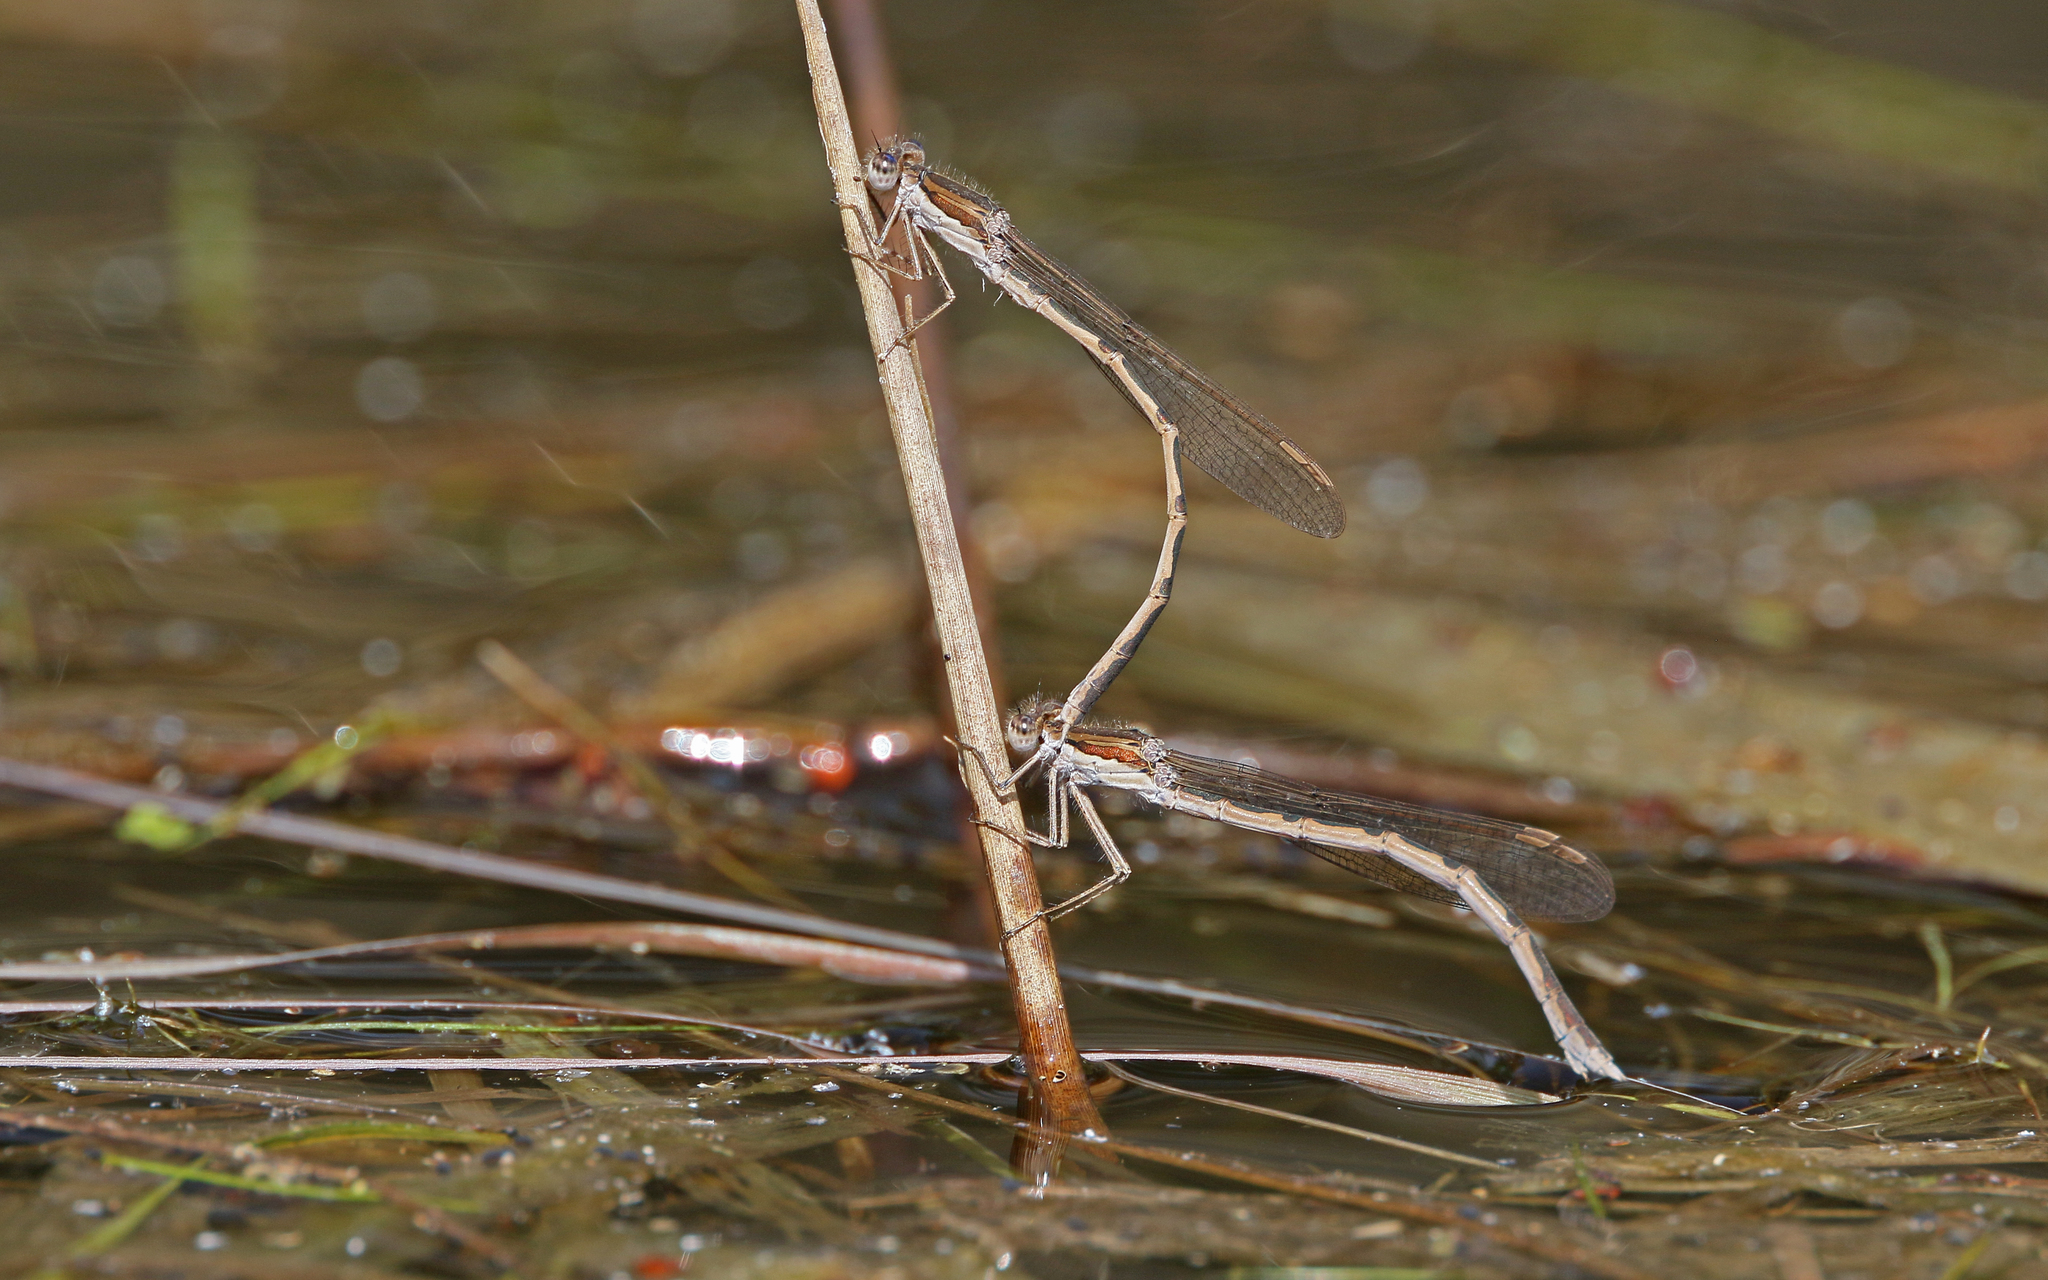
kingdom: Animalia
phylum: Arthropoda
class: Insecta
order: Odonata
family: Lestidae
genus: Sympecma
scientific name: Sympecma fusca
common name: Common winter damsel
